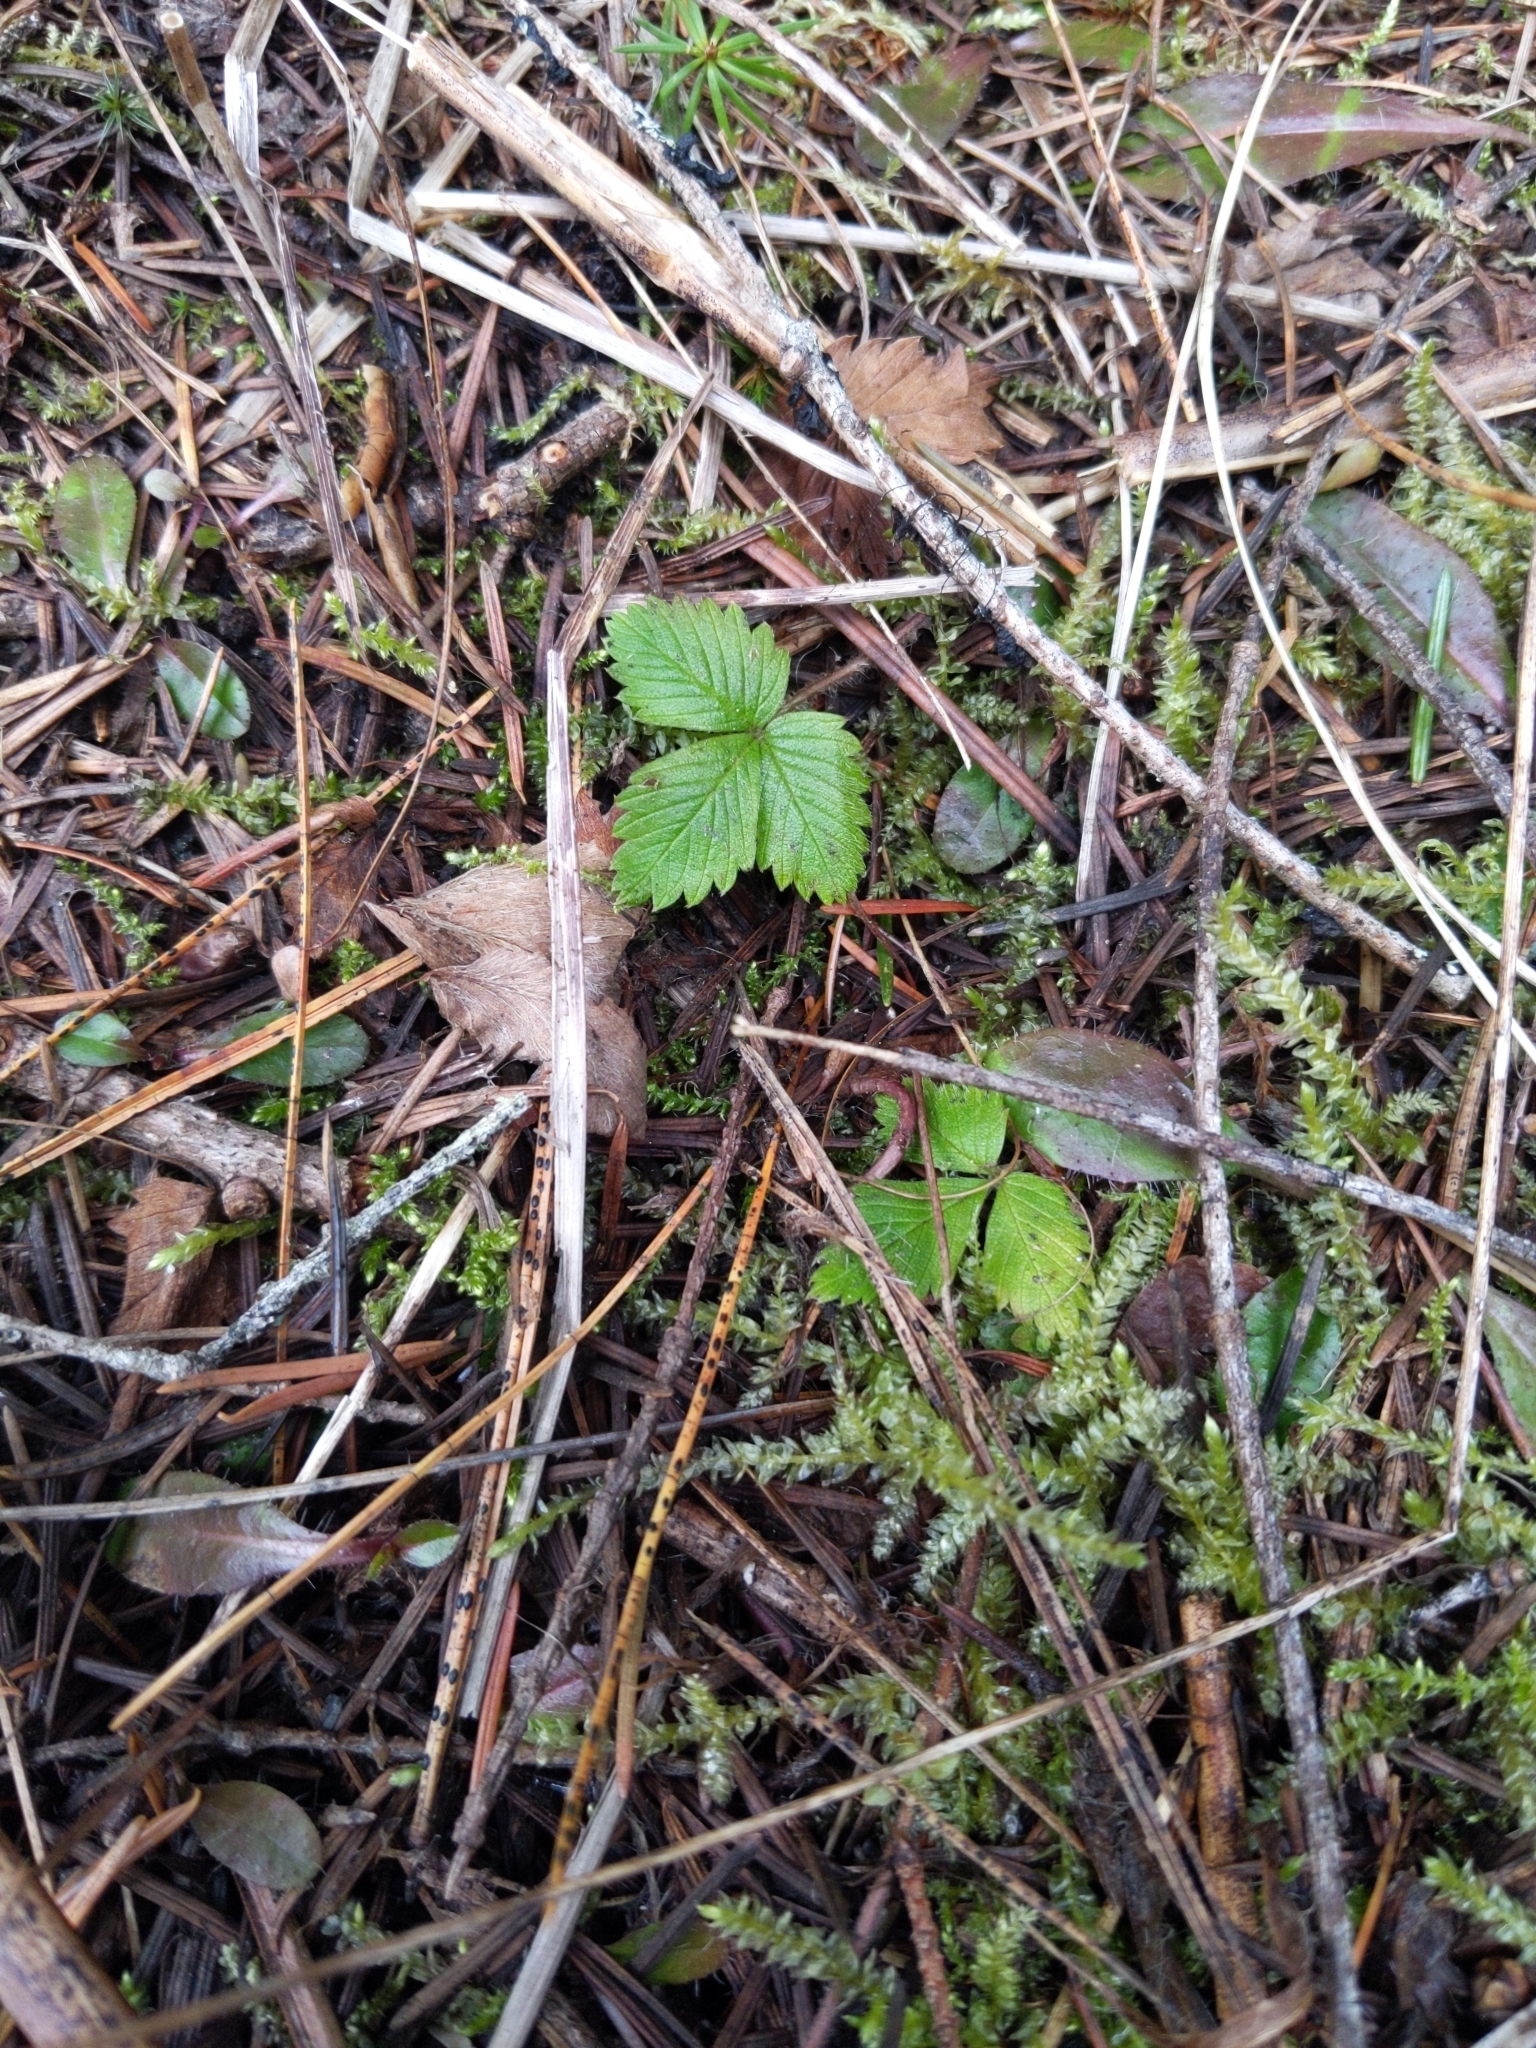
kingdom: Plantae
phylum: Tracheophyta
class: Magnoliopsida
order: Rosales
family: Rosaceae
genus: Fragaria
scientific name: Fragaria vesca
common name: Wild strawberry
